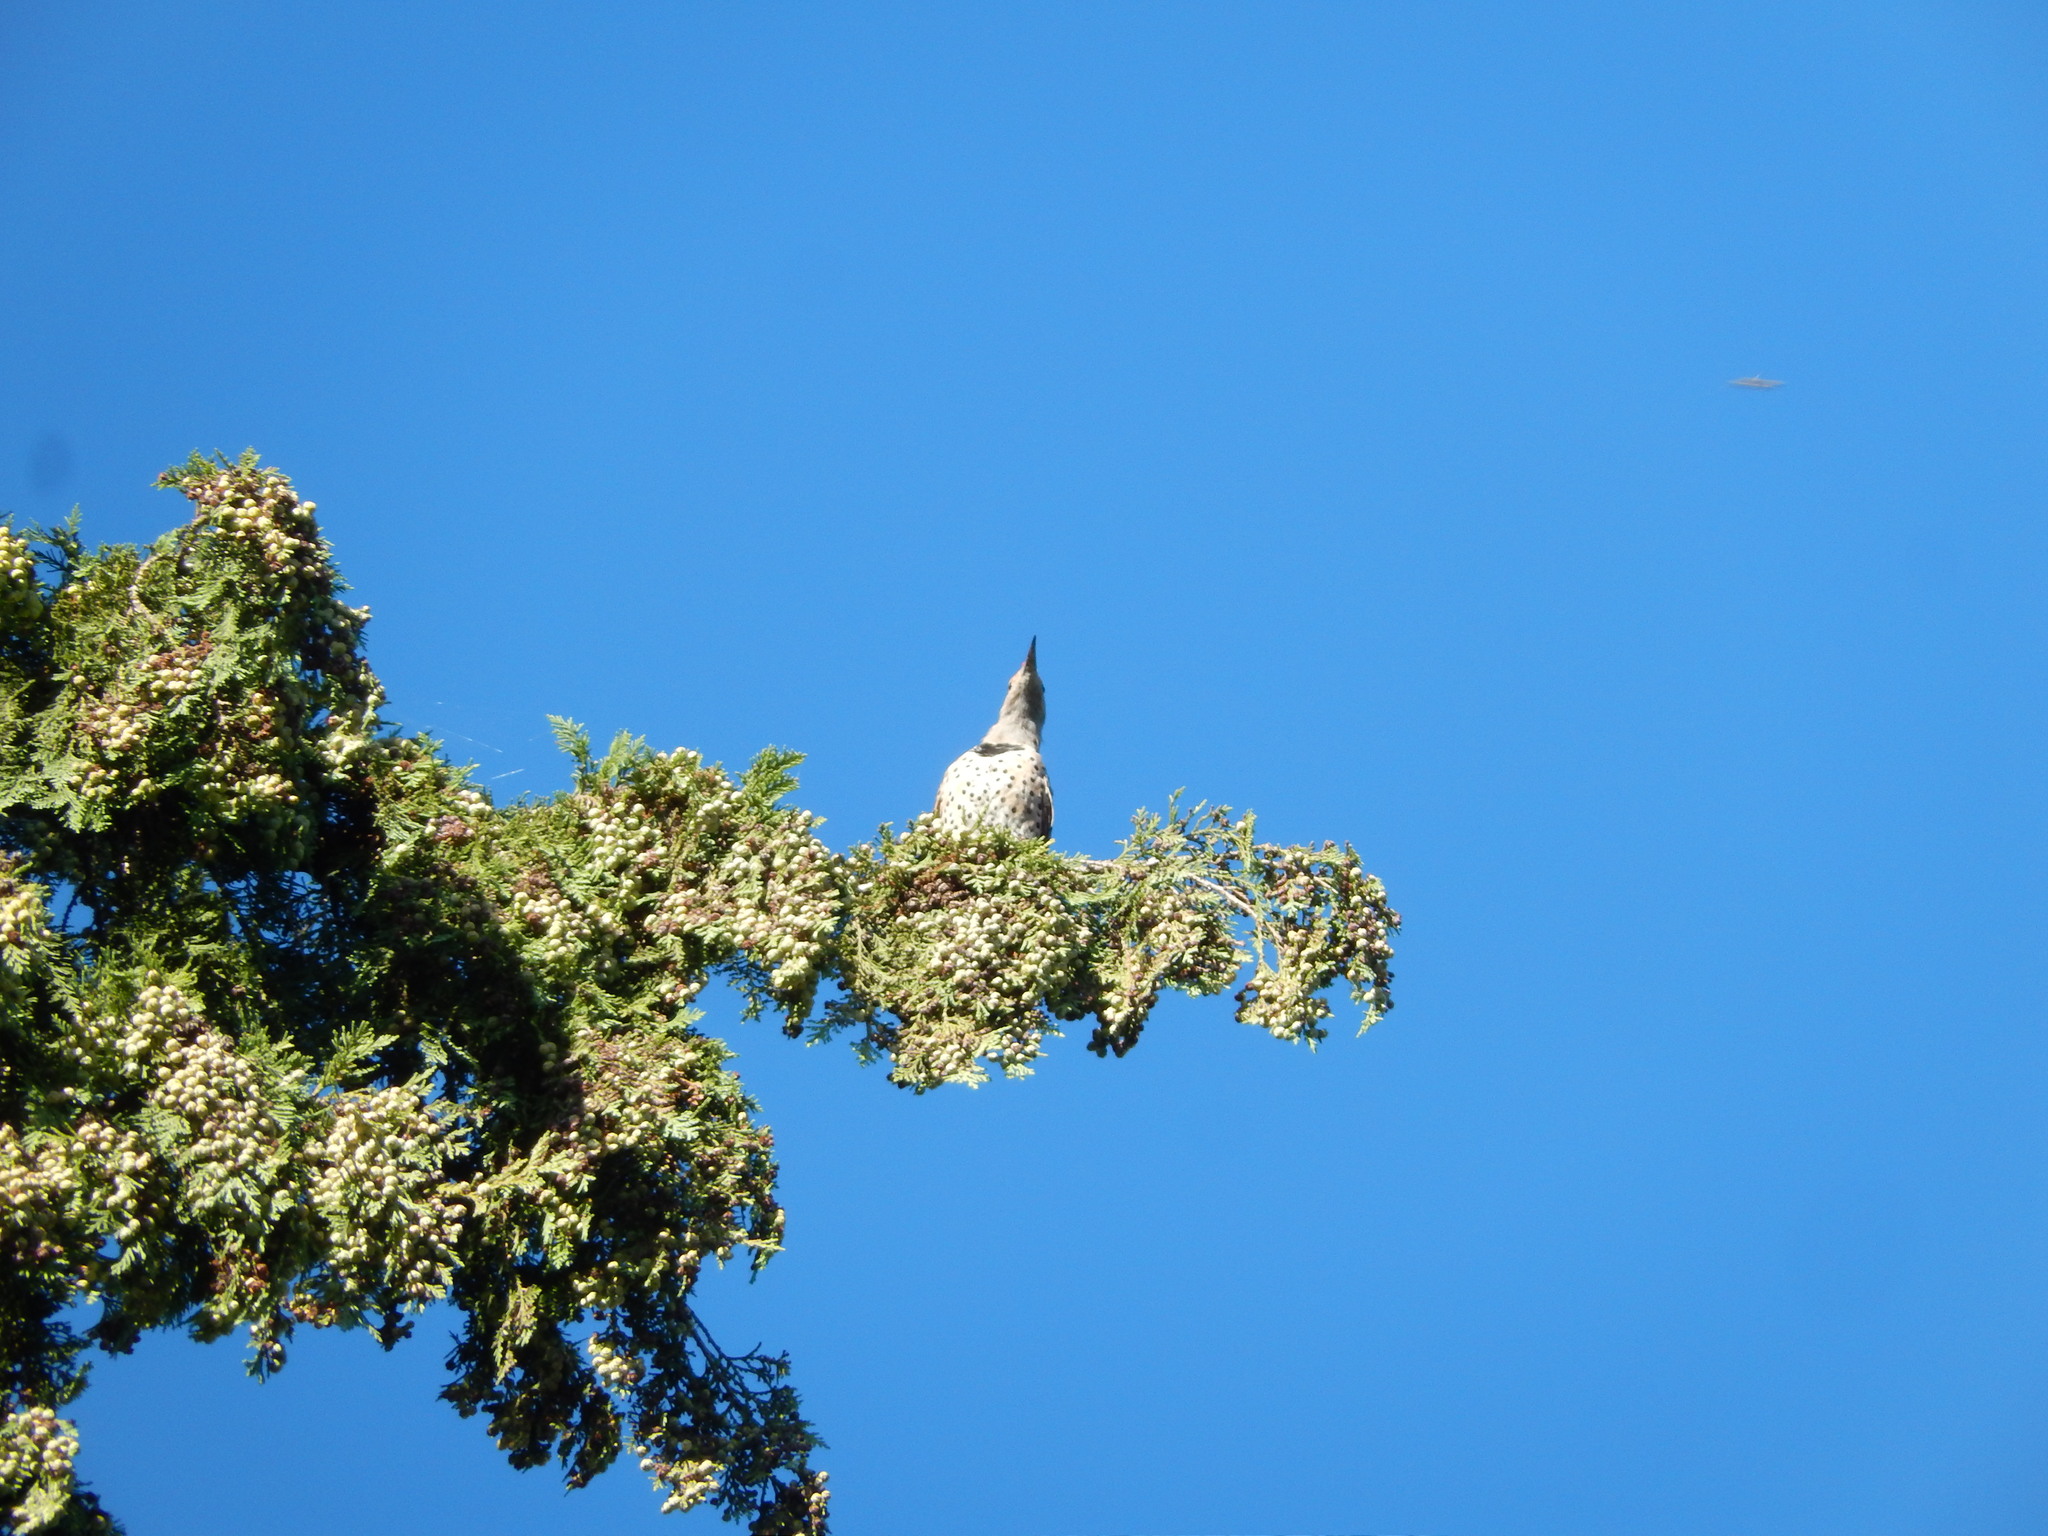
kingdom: Animalia
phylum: Chordata
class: Aves
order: Piciformes
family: Picidae
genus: Colaptes
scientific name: Colaptes auratus
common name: Northern flicker
